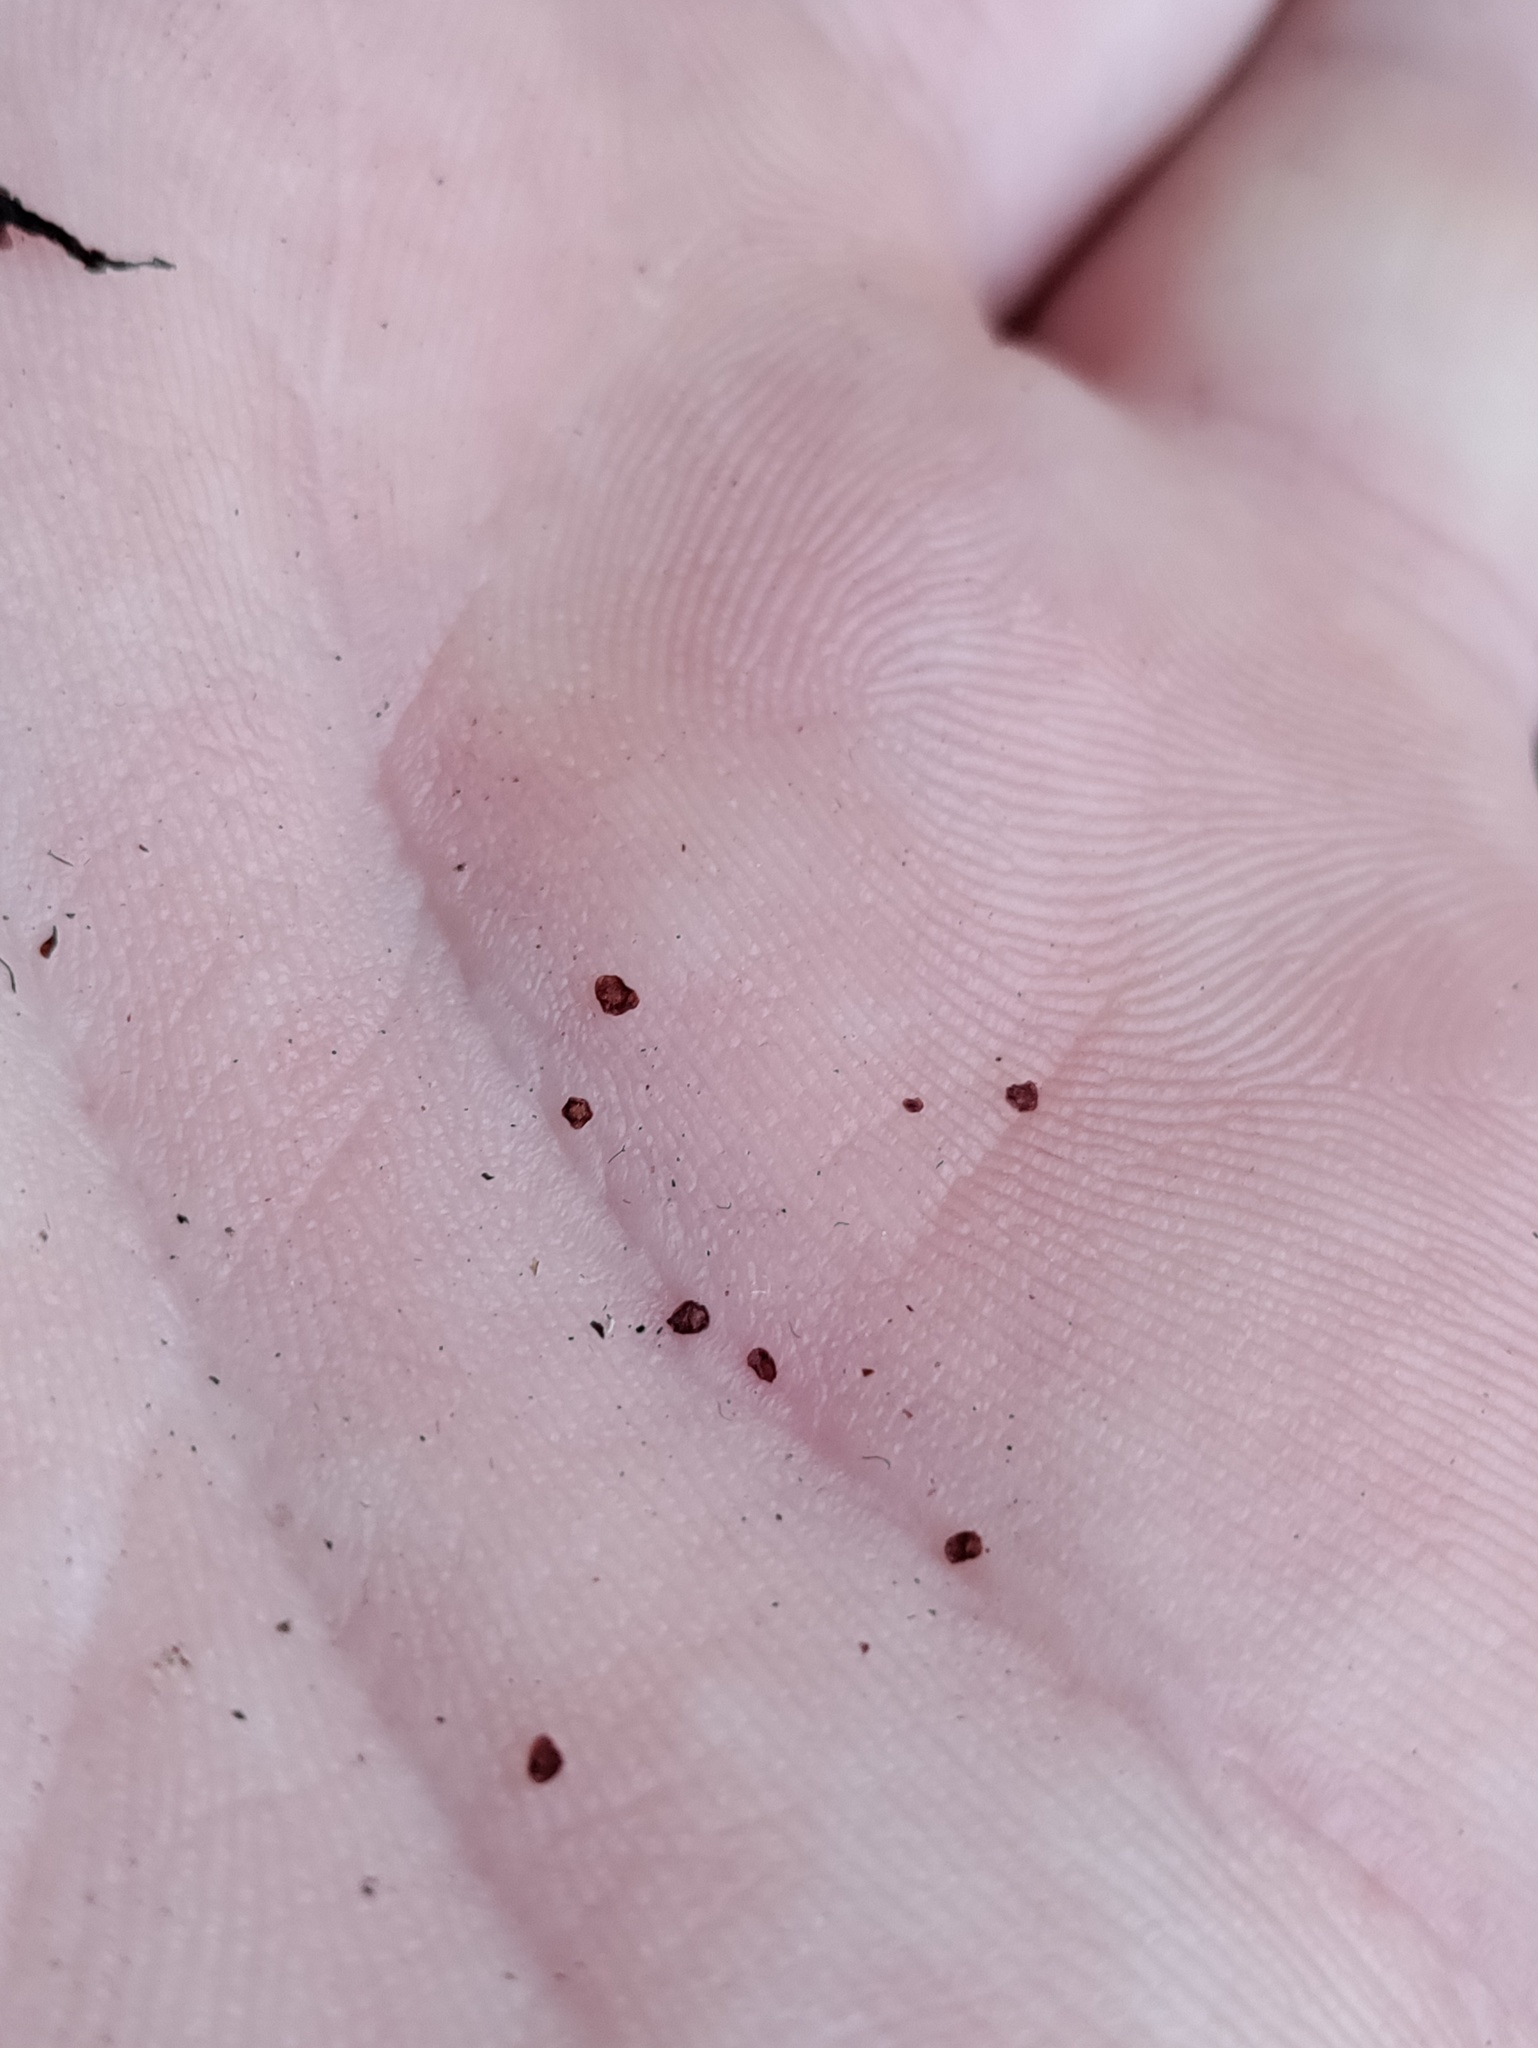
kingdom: Plantae
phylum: Tracheophyta
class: Magnoliopsida
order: Ericales
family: Primulaceae
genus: Soldanella
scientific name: Soldanella montana
